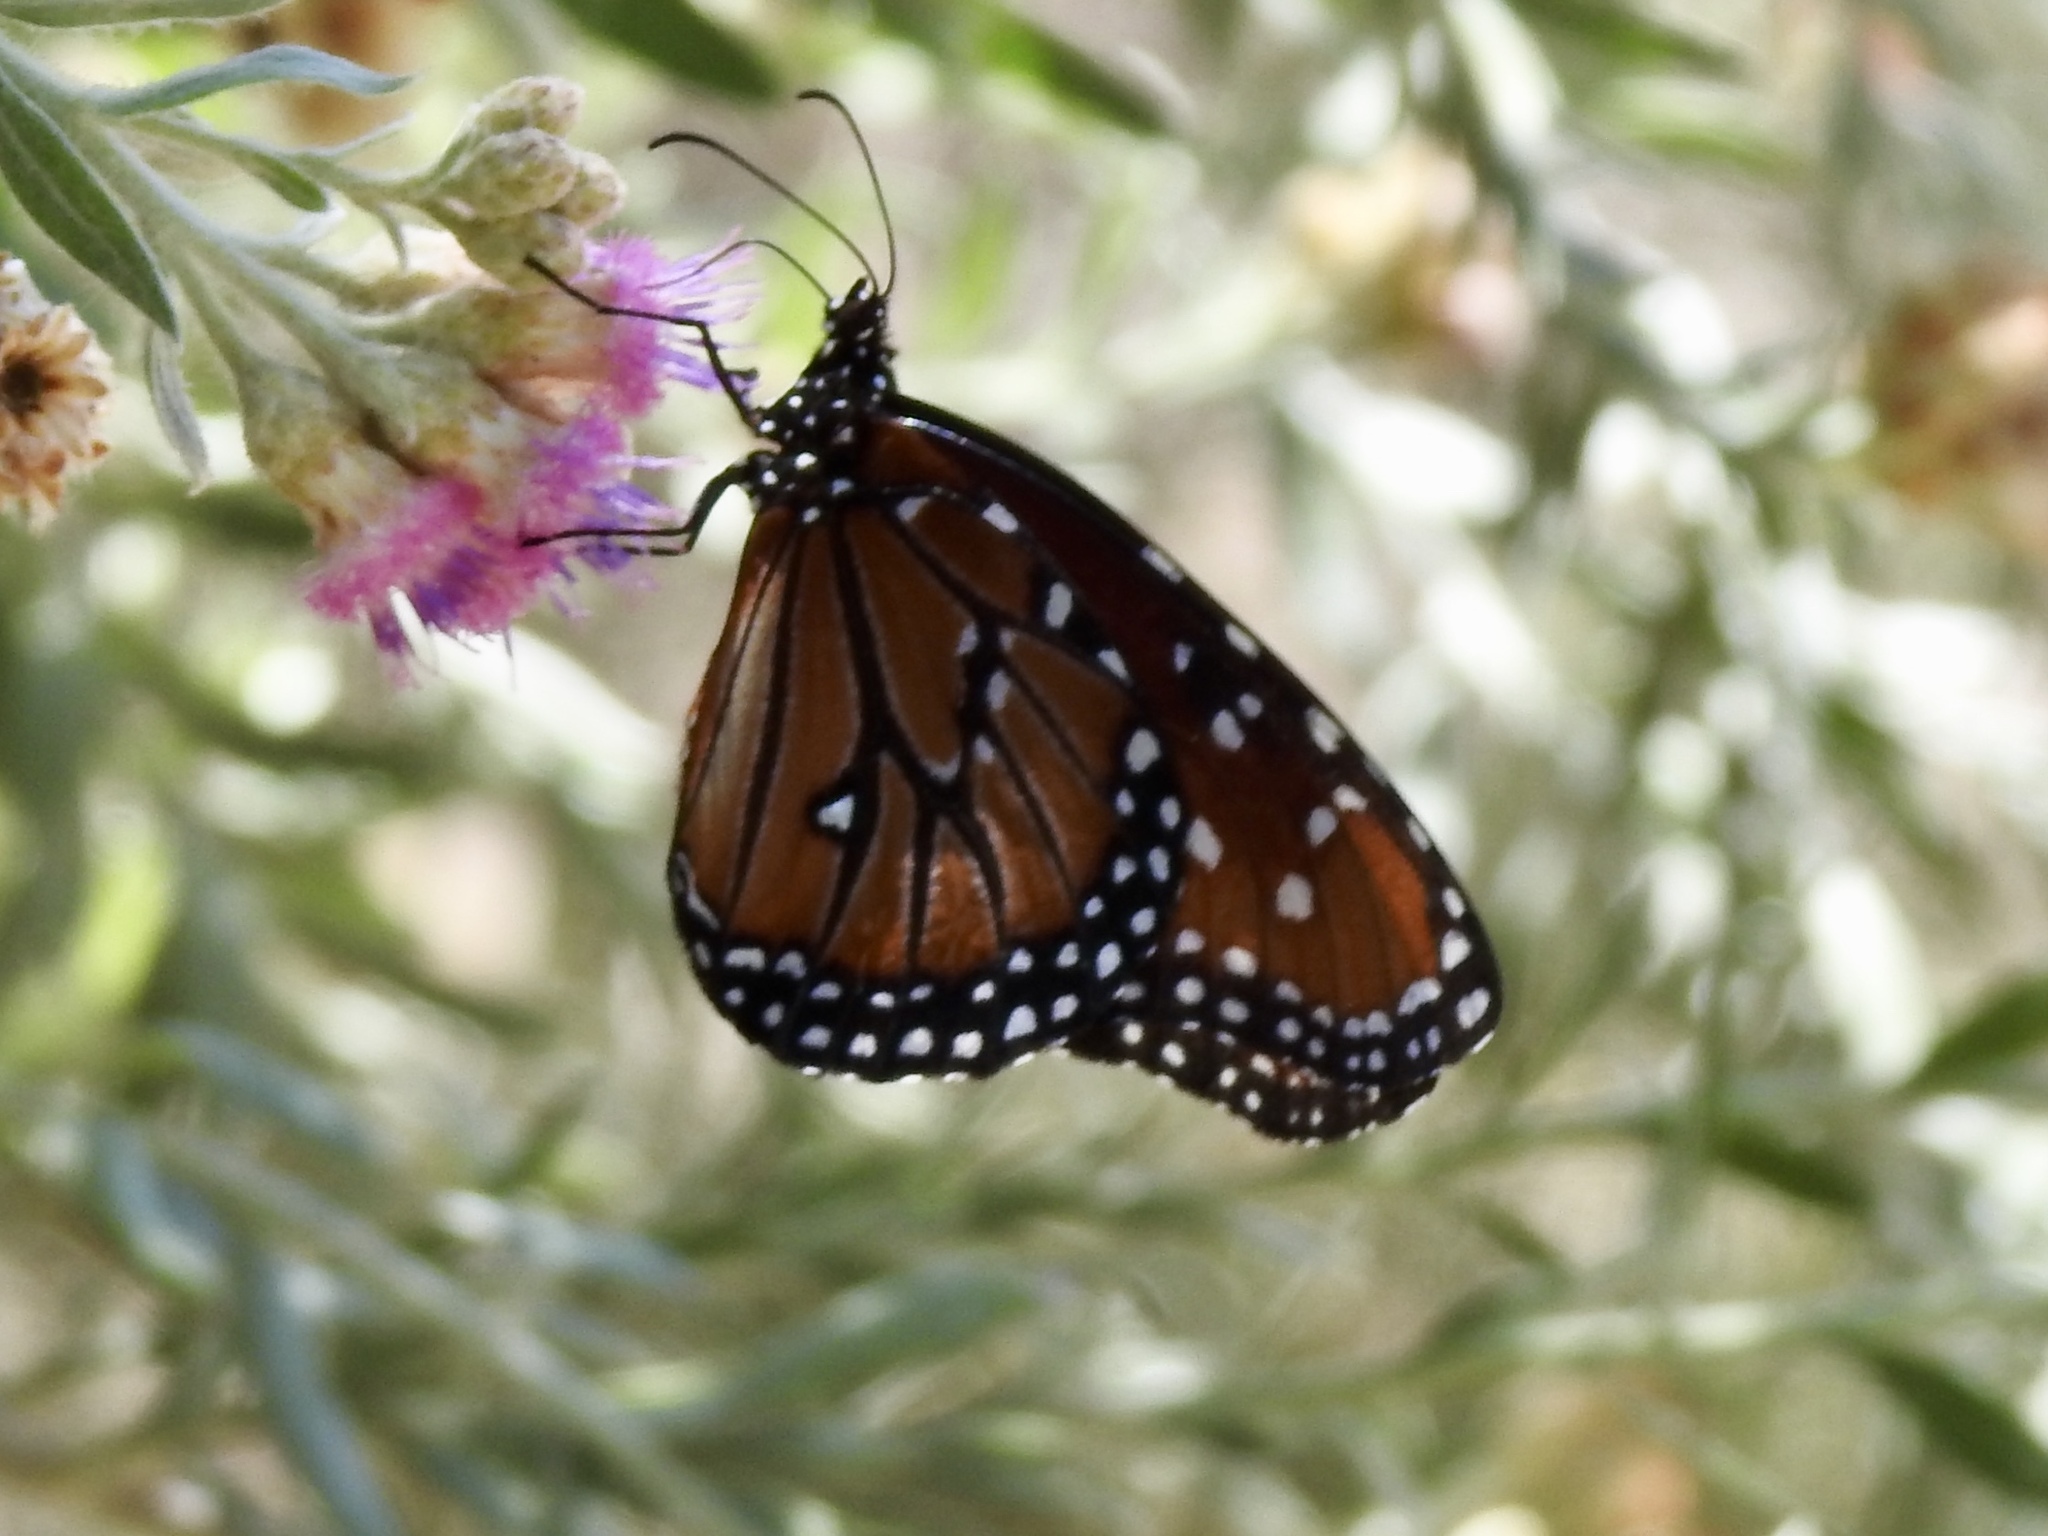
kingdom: Animalia
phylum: Arthropoda
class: Insecta
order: Lepidoptera
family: Nymphalidae
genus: Danaus
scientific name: Danaus gilippus
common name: Queen
